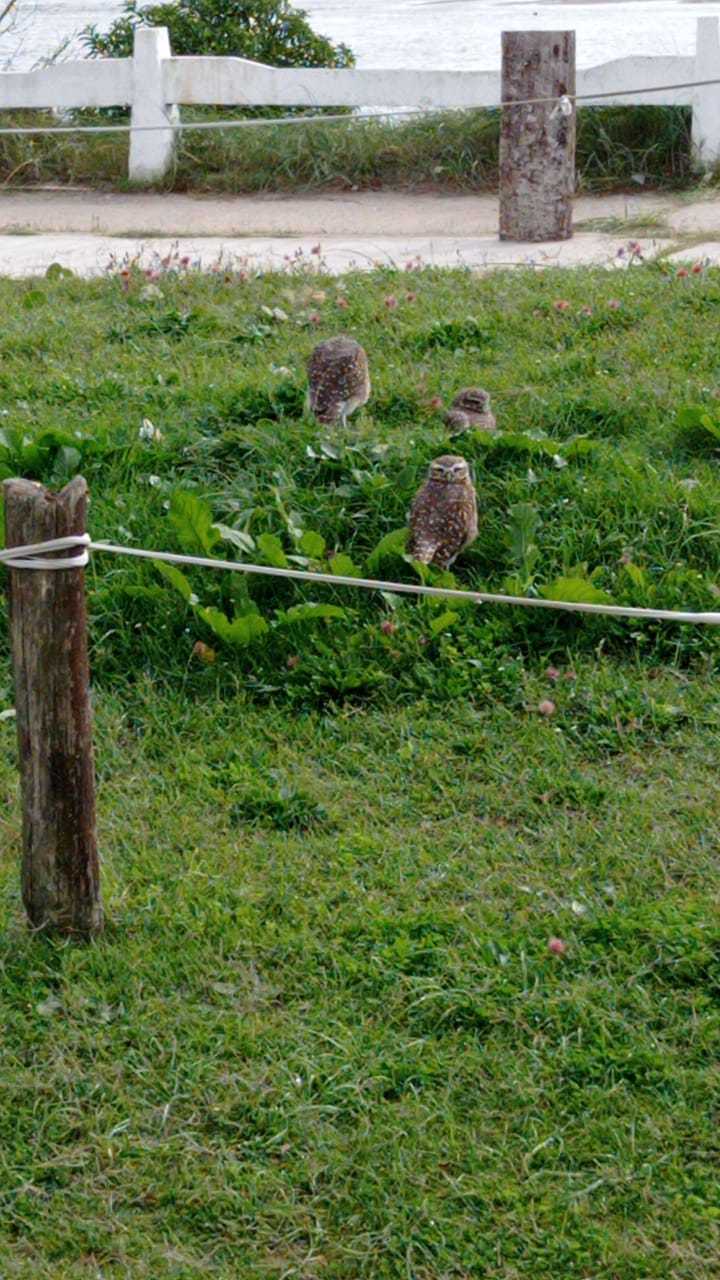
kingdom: Animalia
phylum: Chordata
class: Aves
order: Strigiformes
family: Strigidae
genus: Athene
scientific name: Athene cunicularia
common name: Burrowing owl
